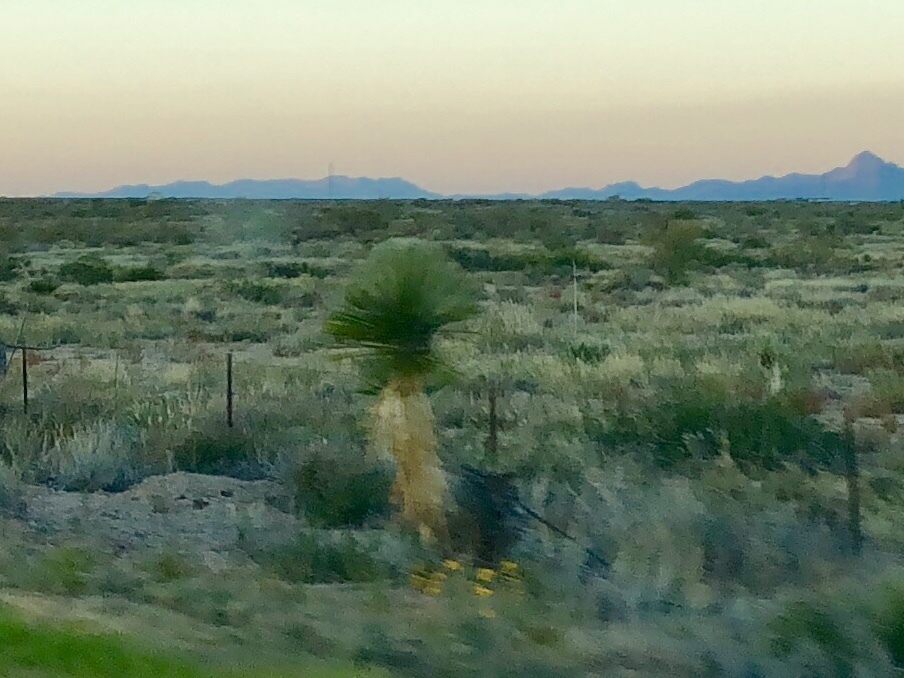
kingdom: Plantae
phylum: Tracheophyta
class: Liliopsida
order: Asparagales
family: Asparagaceae
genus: Yucca
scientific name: Yucca elata
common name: Palmella
